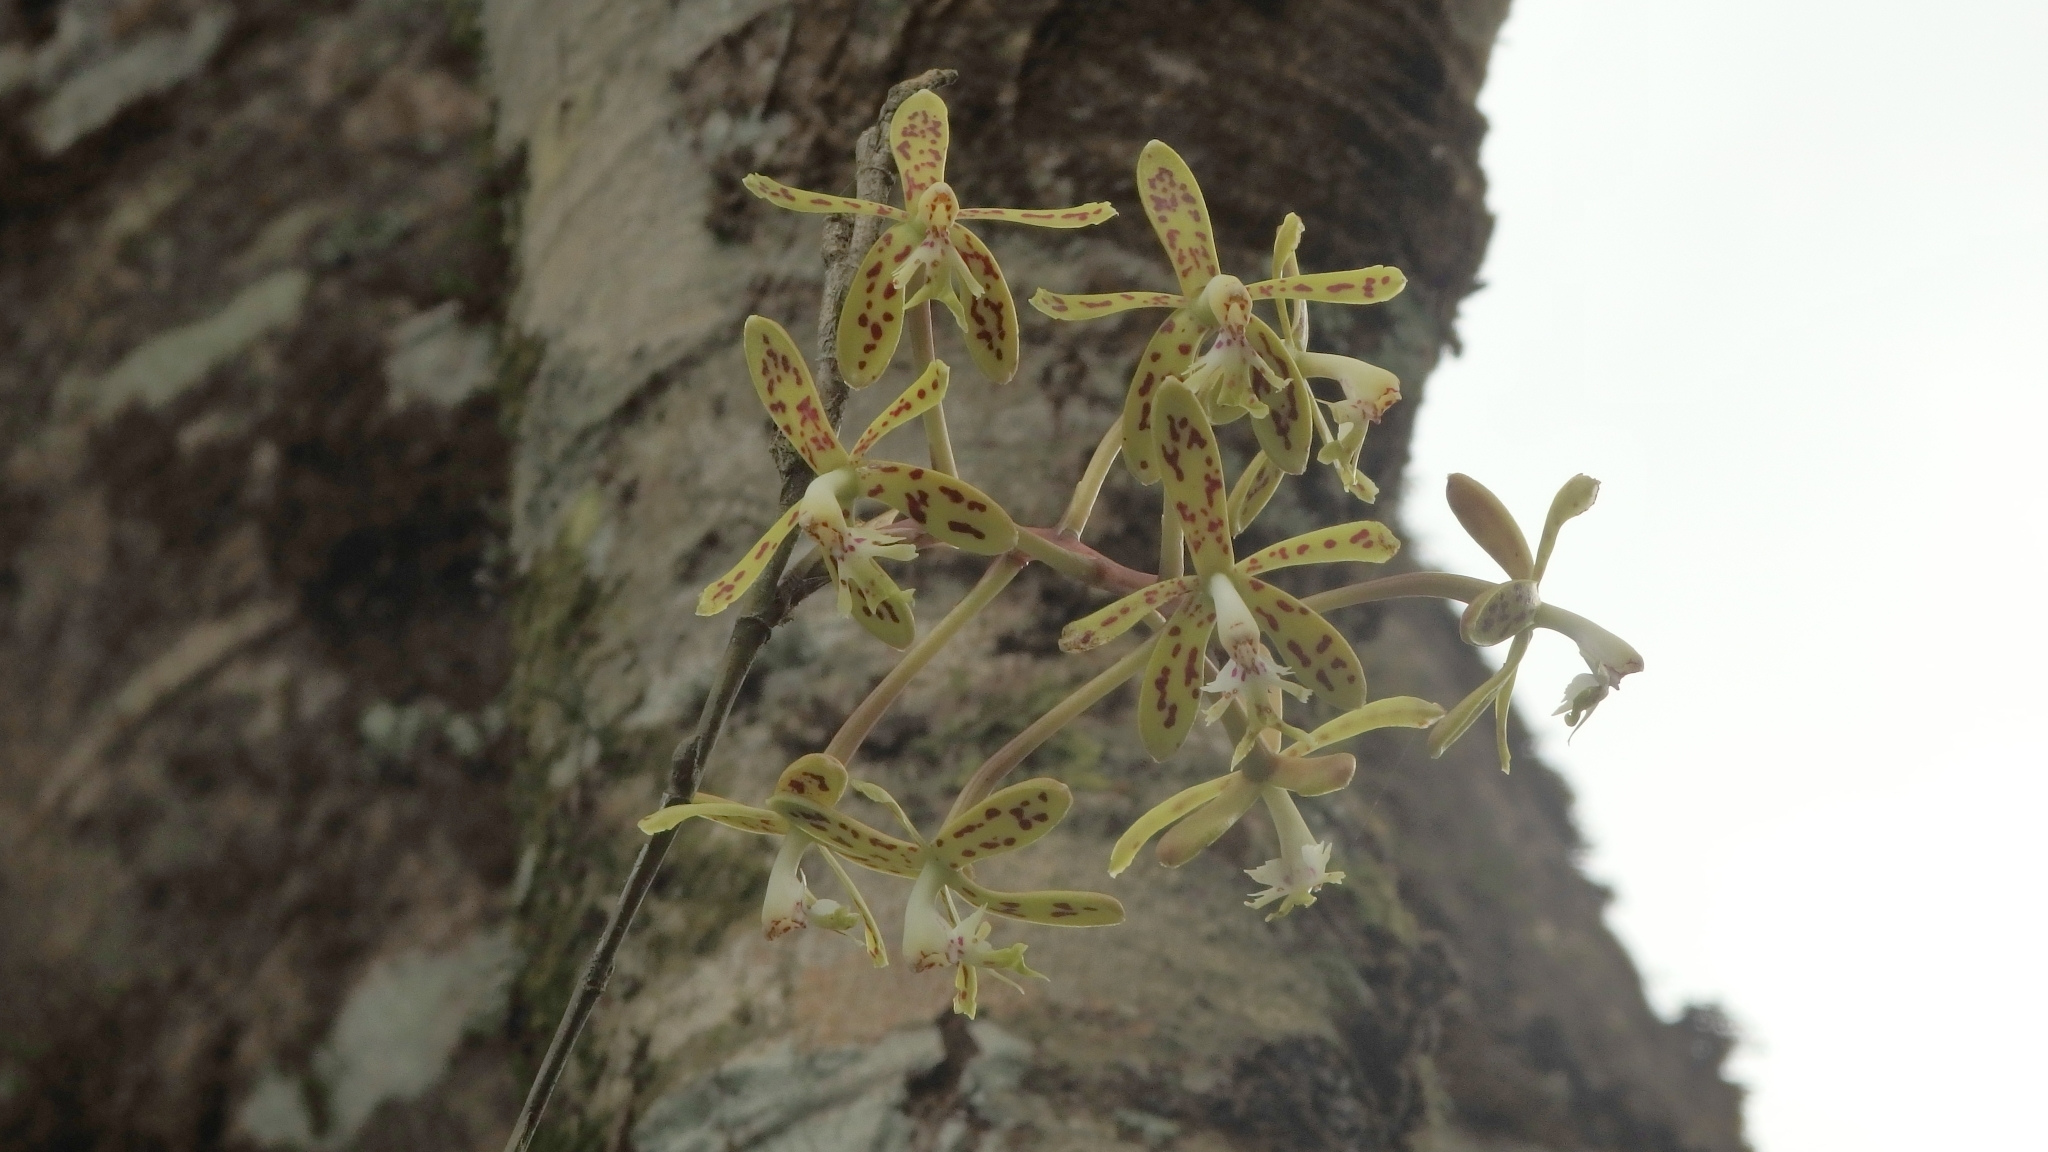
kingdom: Plantae
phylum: Tracheophyta
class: Liliopsida
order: Asparagales
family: Orchidaceae
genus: Epidendrum
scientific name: Epidendrum cristatum
